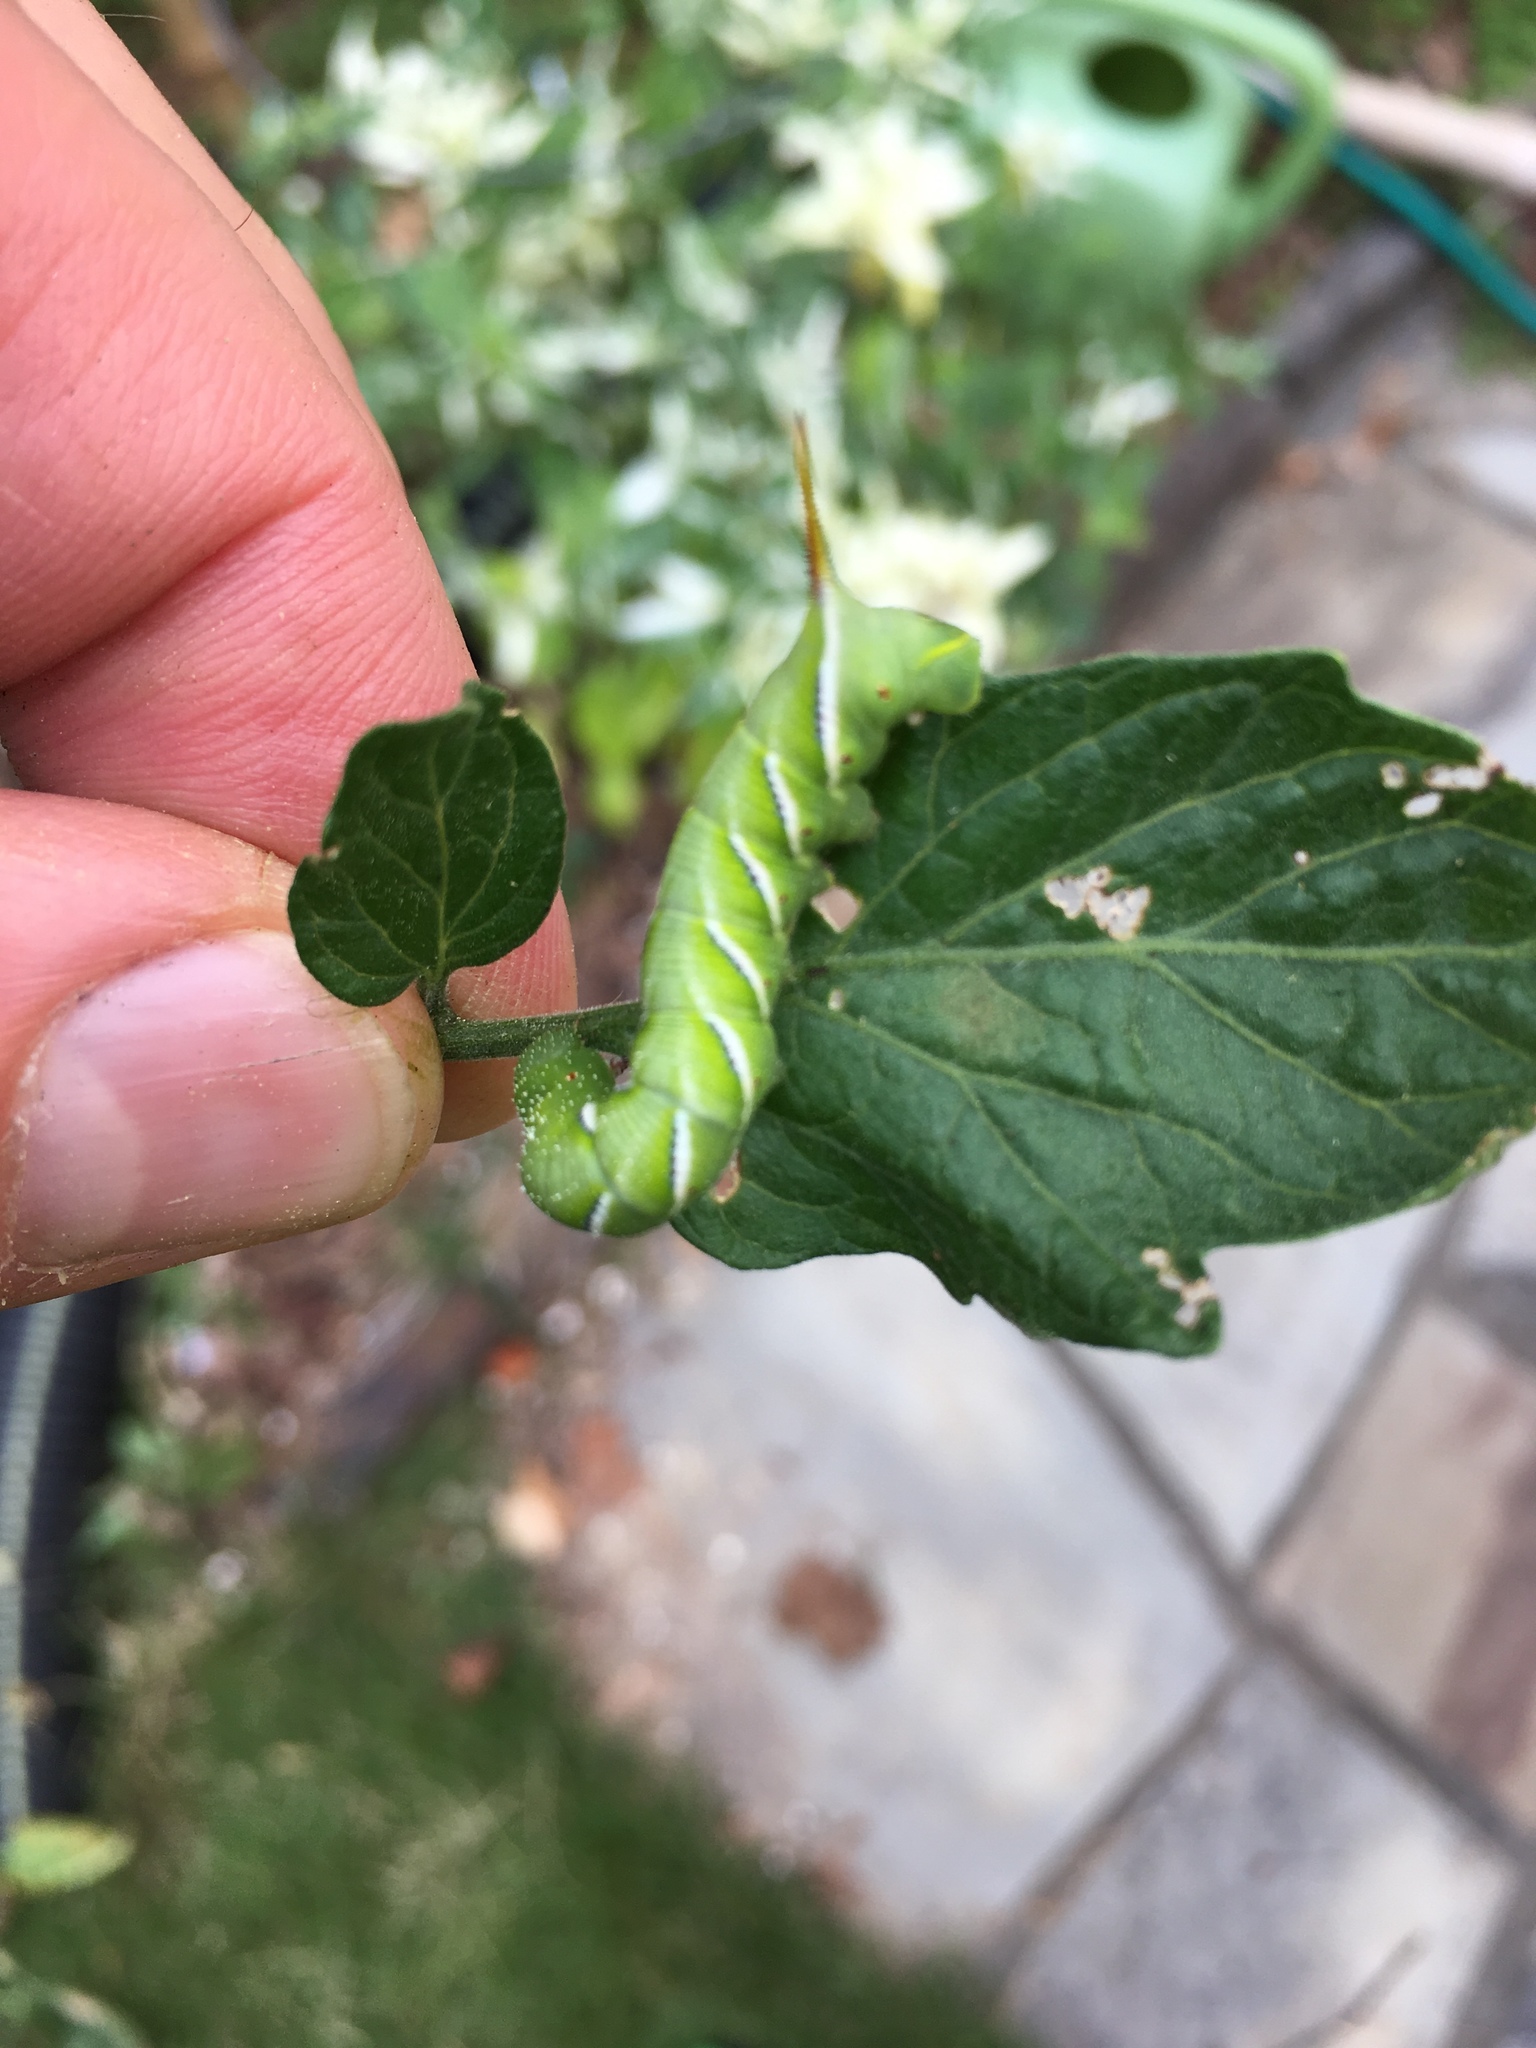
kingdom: Animalia
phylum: Arthropoda
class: Insecta
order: Lepidoptera
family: Sphingidae
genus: Manduca
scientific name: Manduca sexta
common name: Carolina sphinx
